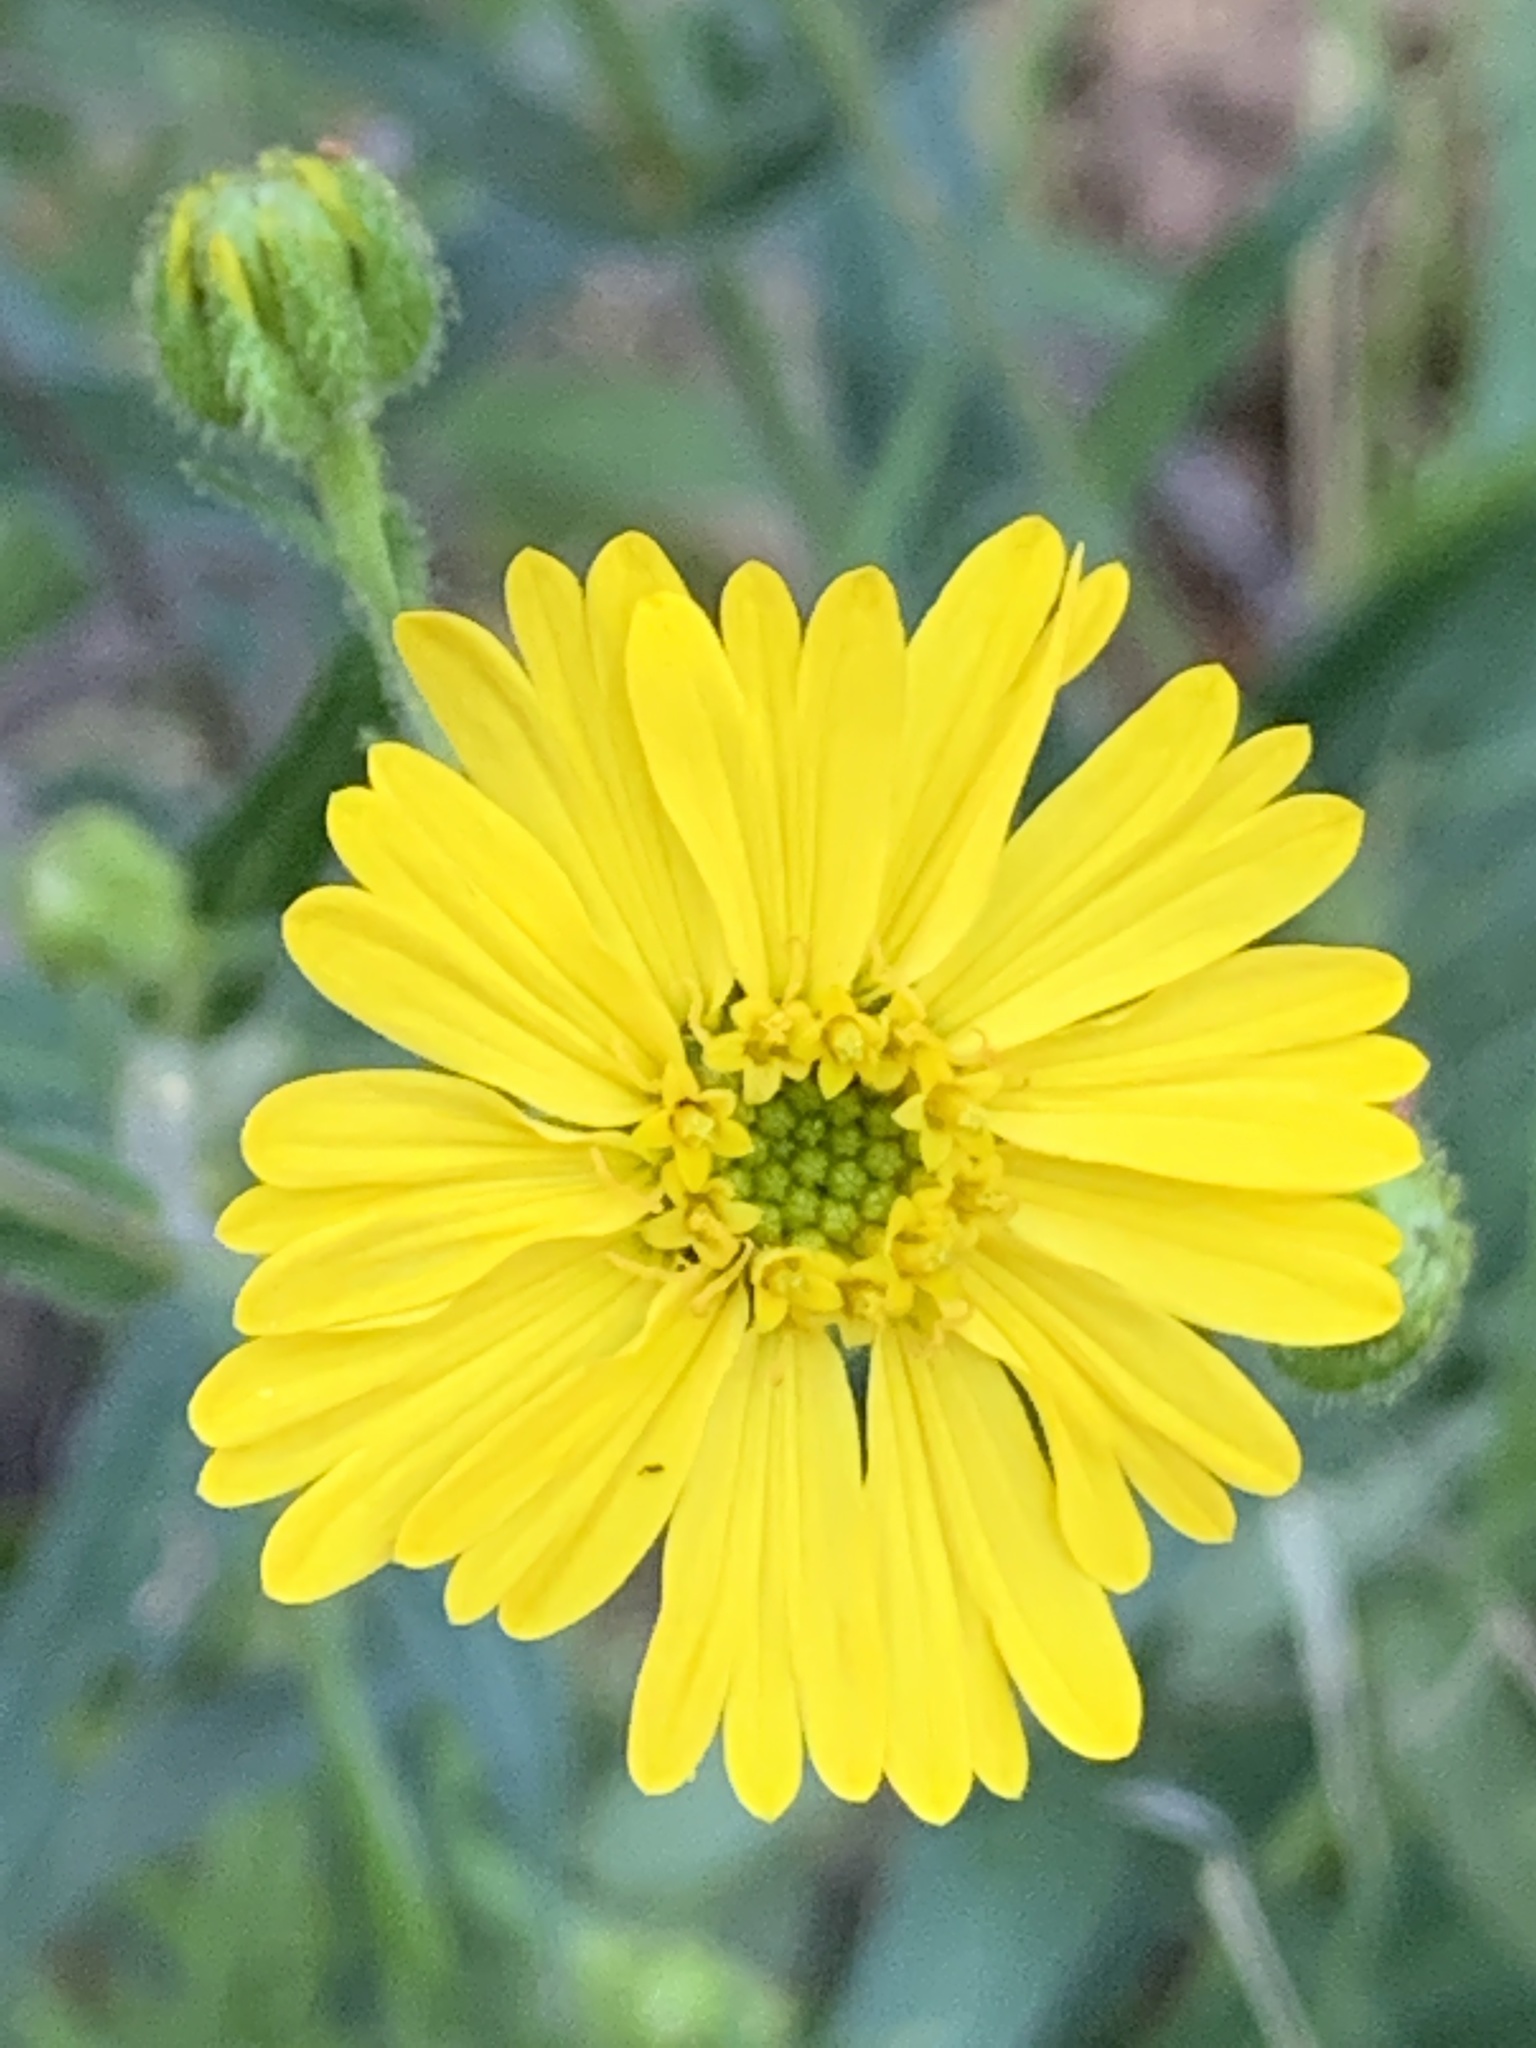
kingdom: Plantae
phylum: Tracheophyta
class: Magnoliopsida
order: Asterales
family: Asteraceae
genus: Anisocarpus
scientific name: Anisocarpus madioides
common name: Woodland madia
